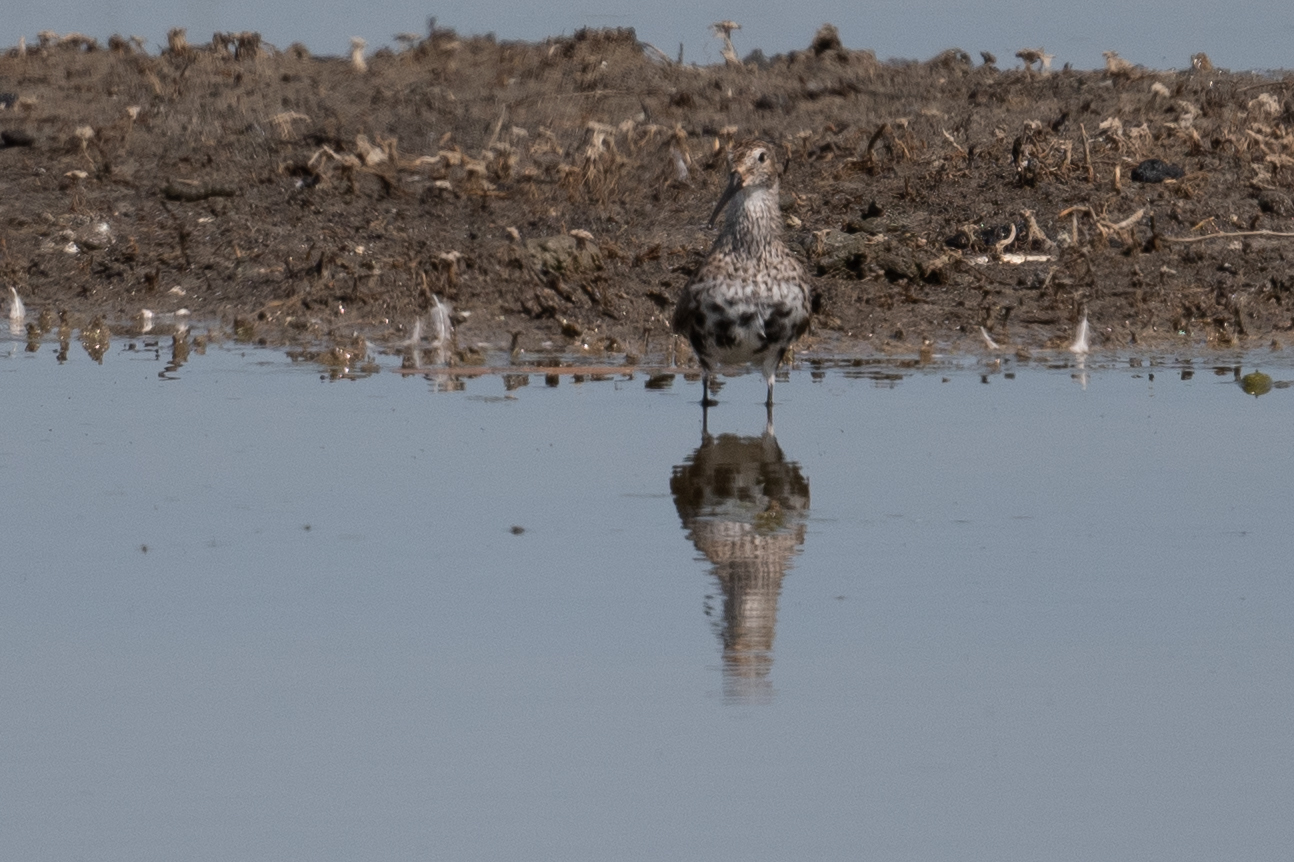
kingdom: Animalia
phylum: Chordata
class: Aves
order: Charadriiformes
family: Scolopacidae
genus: Calidris
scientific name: Calidris alpina
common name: Dunlin
